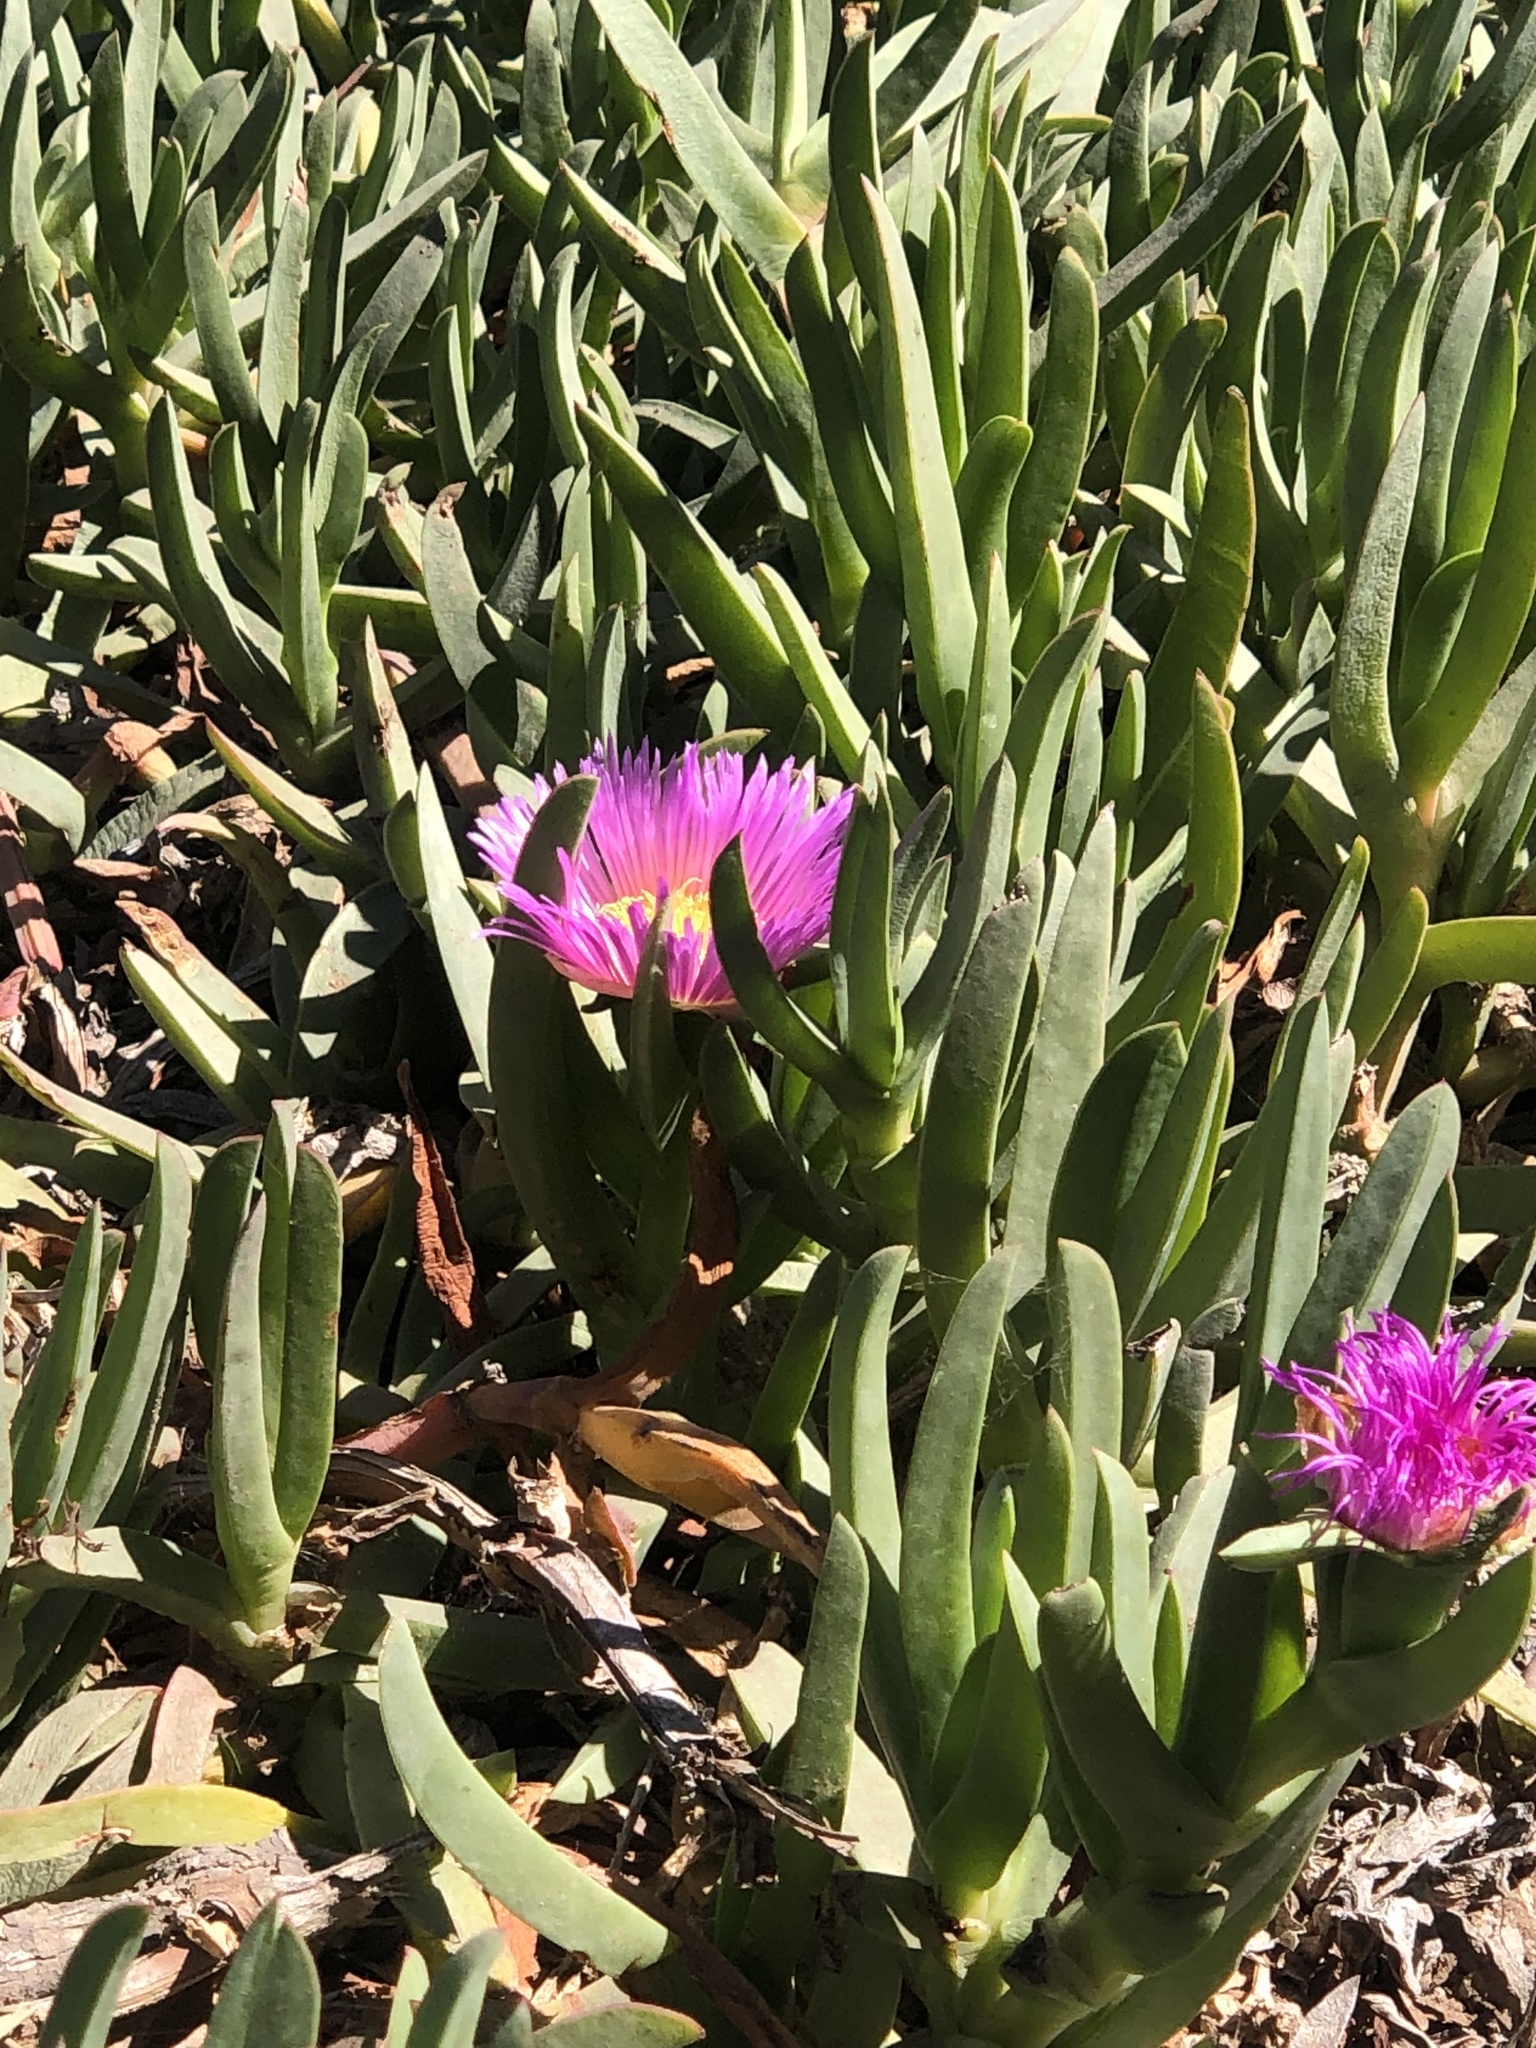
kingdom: Plantae
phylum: Tracheophyta
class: Magnoliopsida
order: Caryophyllales
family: Aizoaceae
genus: Carpobrotus
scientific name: Carpobrotus chilensis
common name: Sea fig
